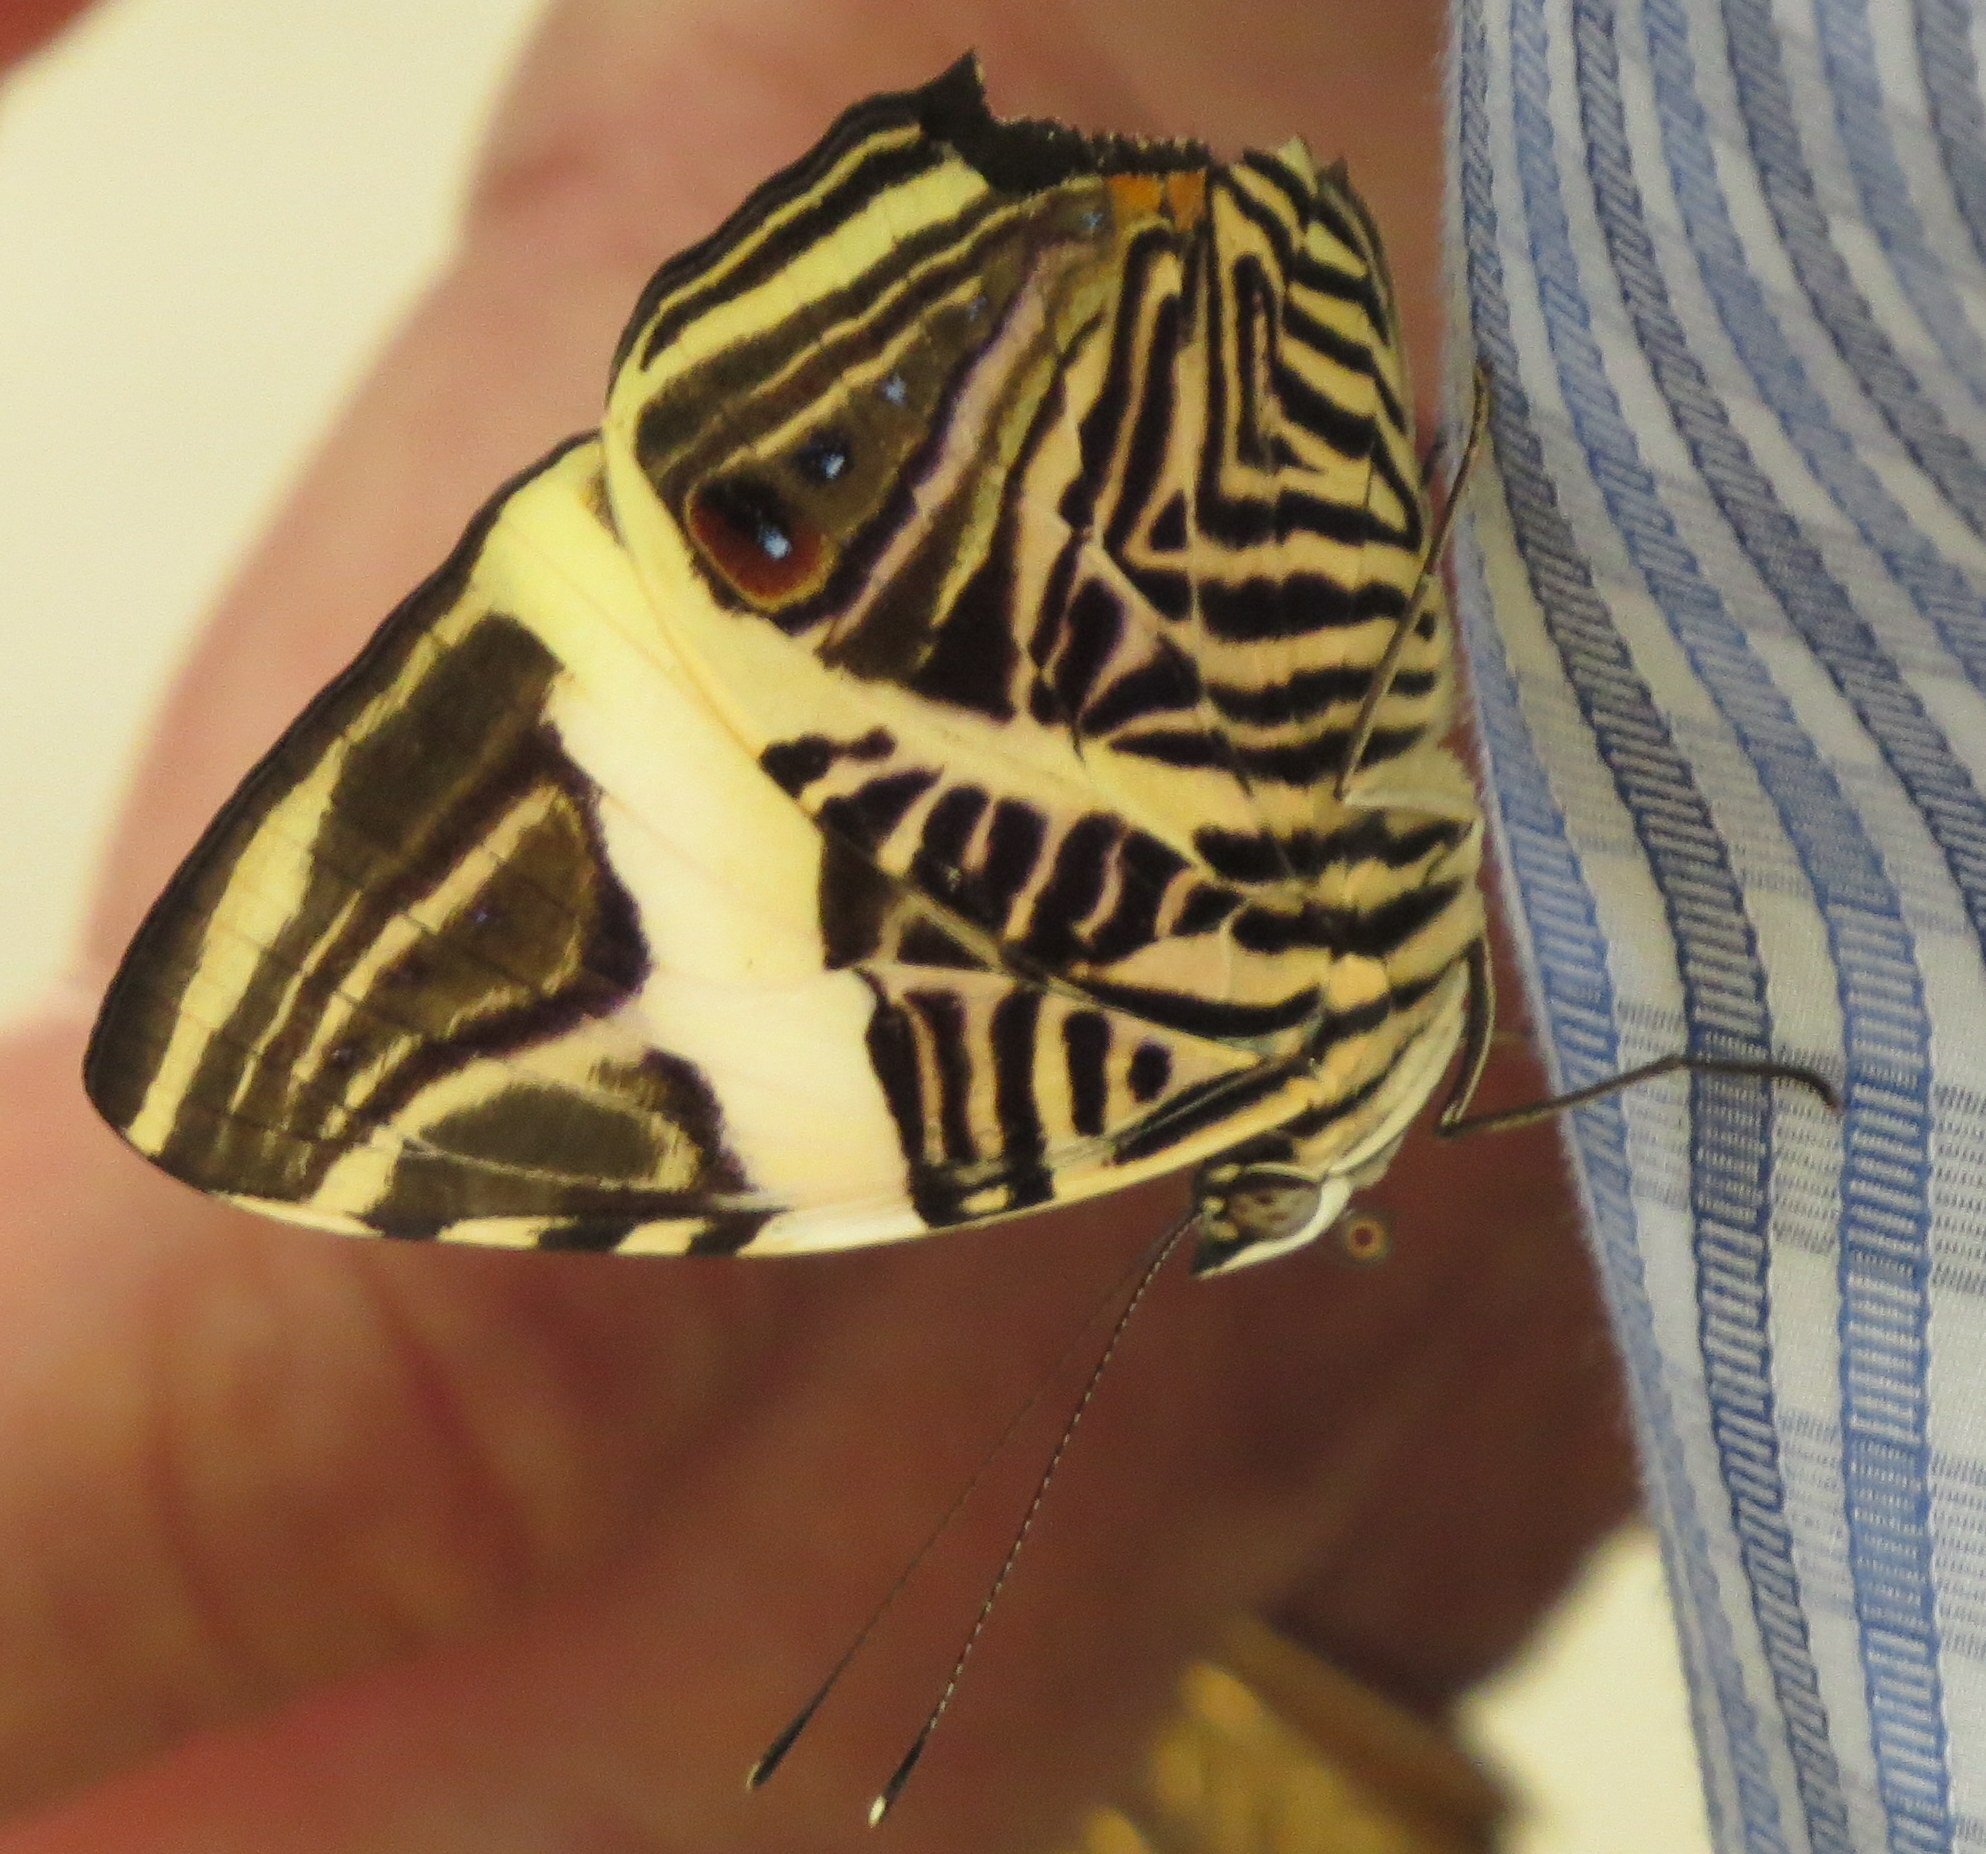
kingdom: Animalia
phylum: Arthropoda
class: Insecta
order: Lepidoptera
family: Nymphalidae
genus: Colobura
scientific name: Colobura dirce
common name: Dirce beauty
